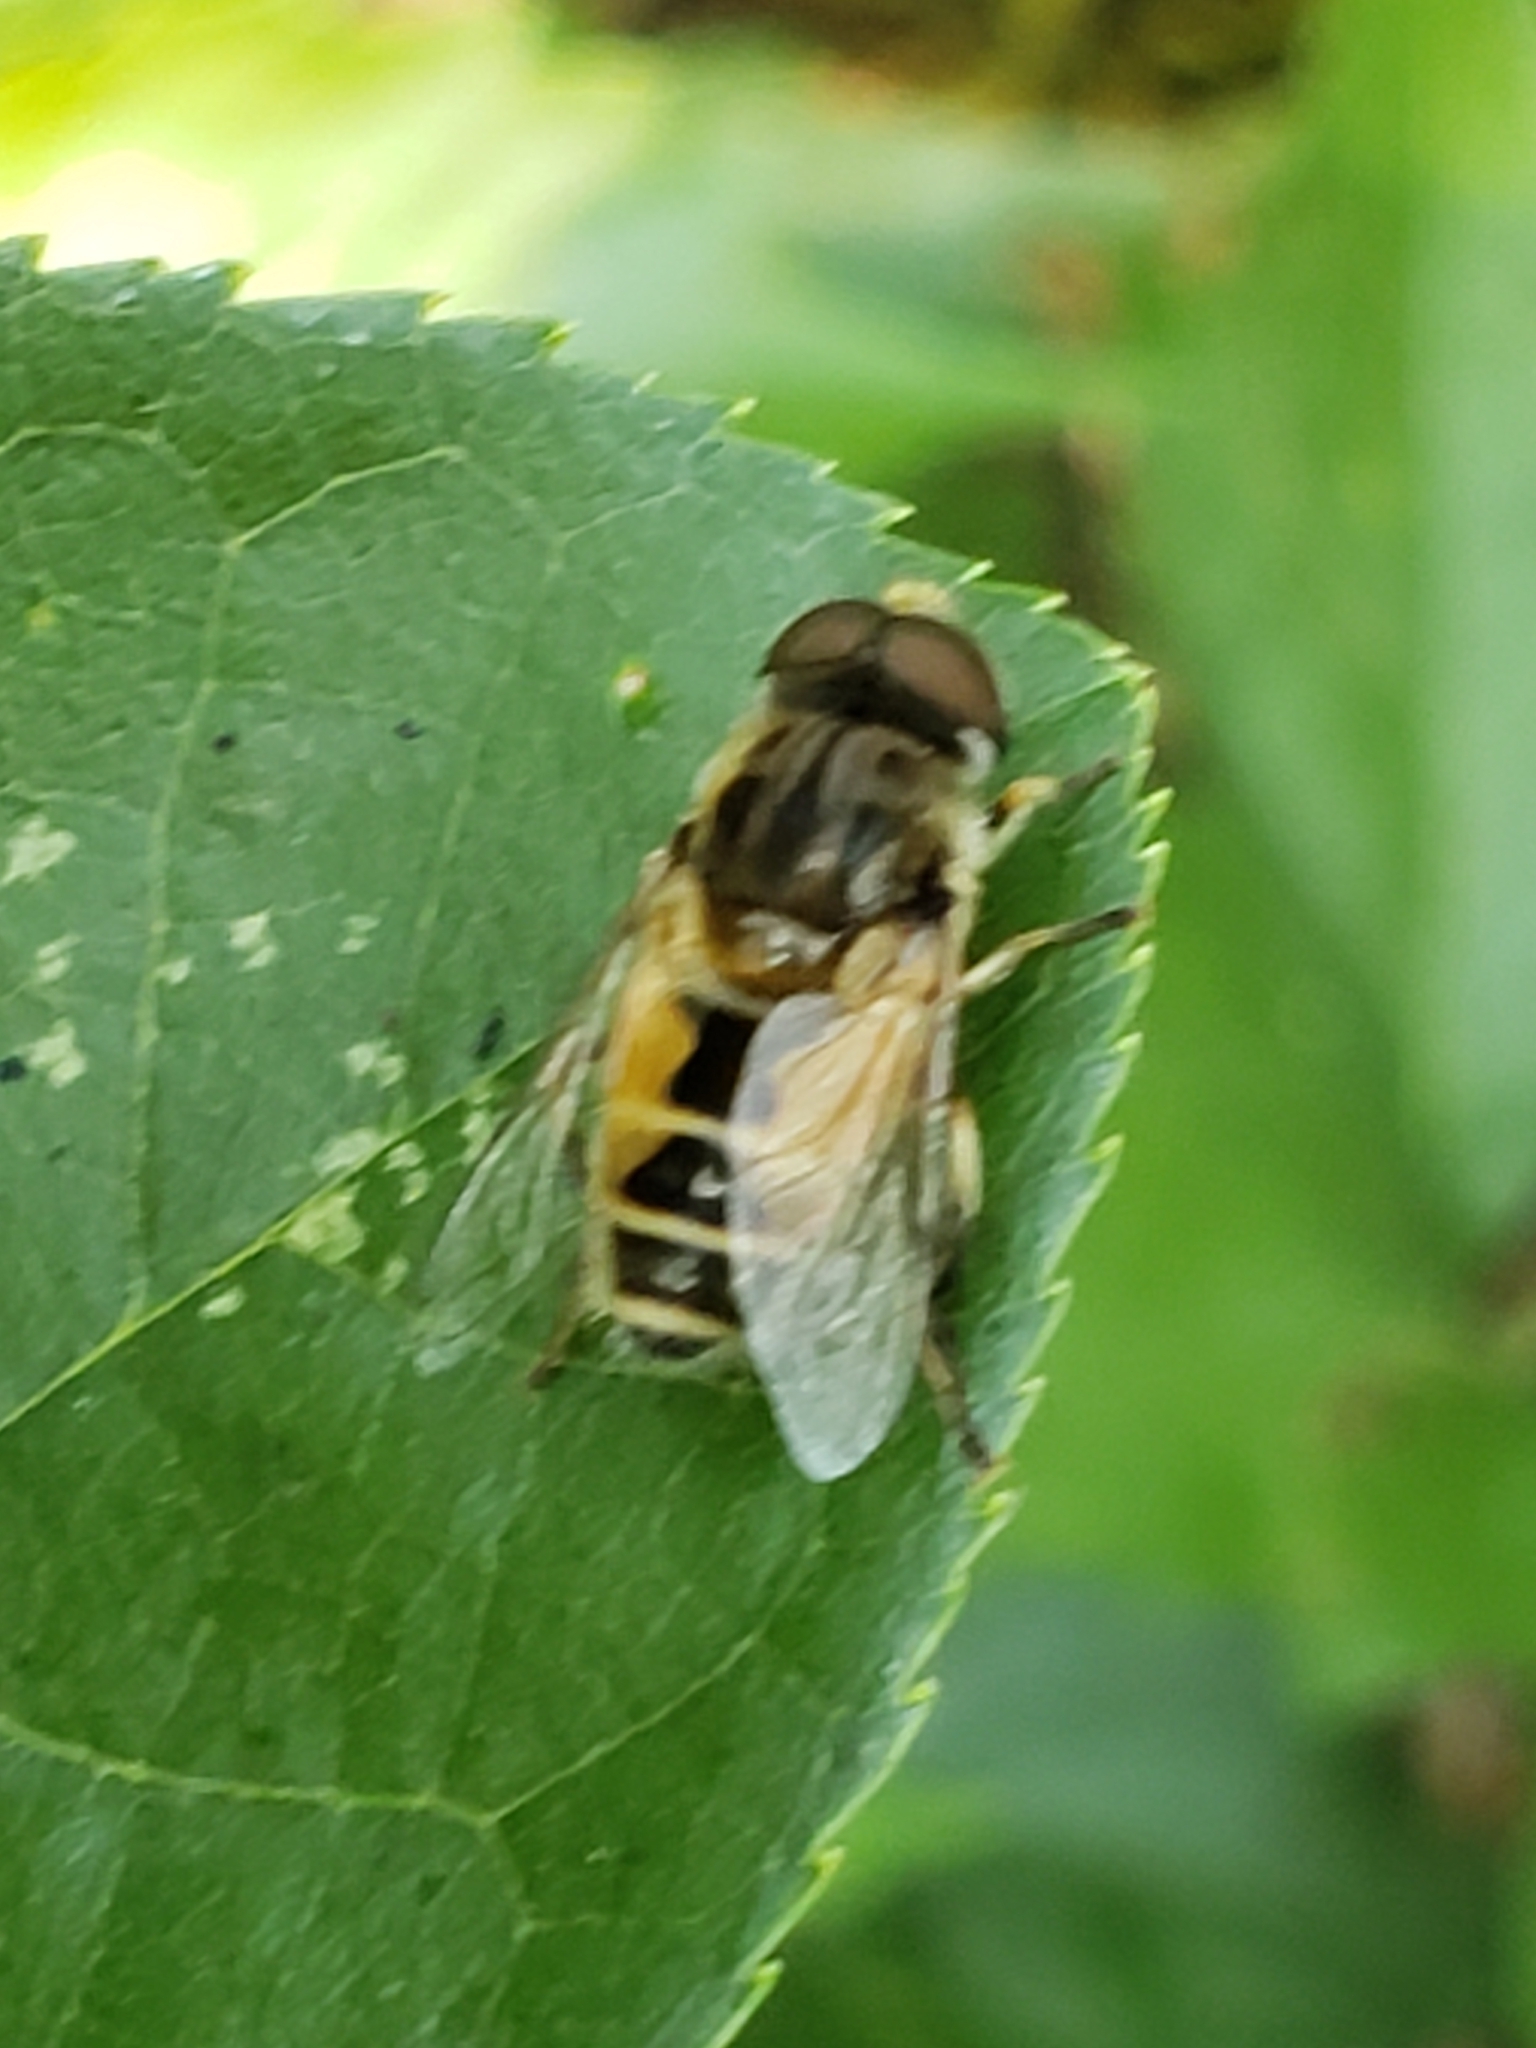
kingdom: Animalia
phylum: Arthropoda
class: Insecta
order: Diptera
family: Syrphidae
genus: Eristalis
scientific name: Eristalis arbustorum
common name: Hover fly
